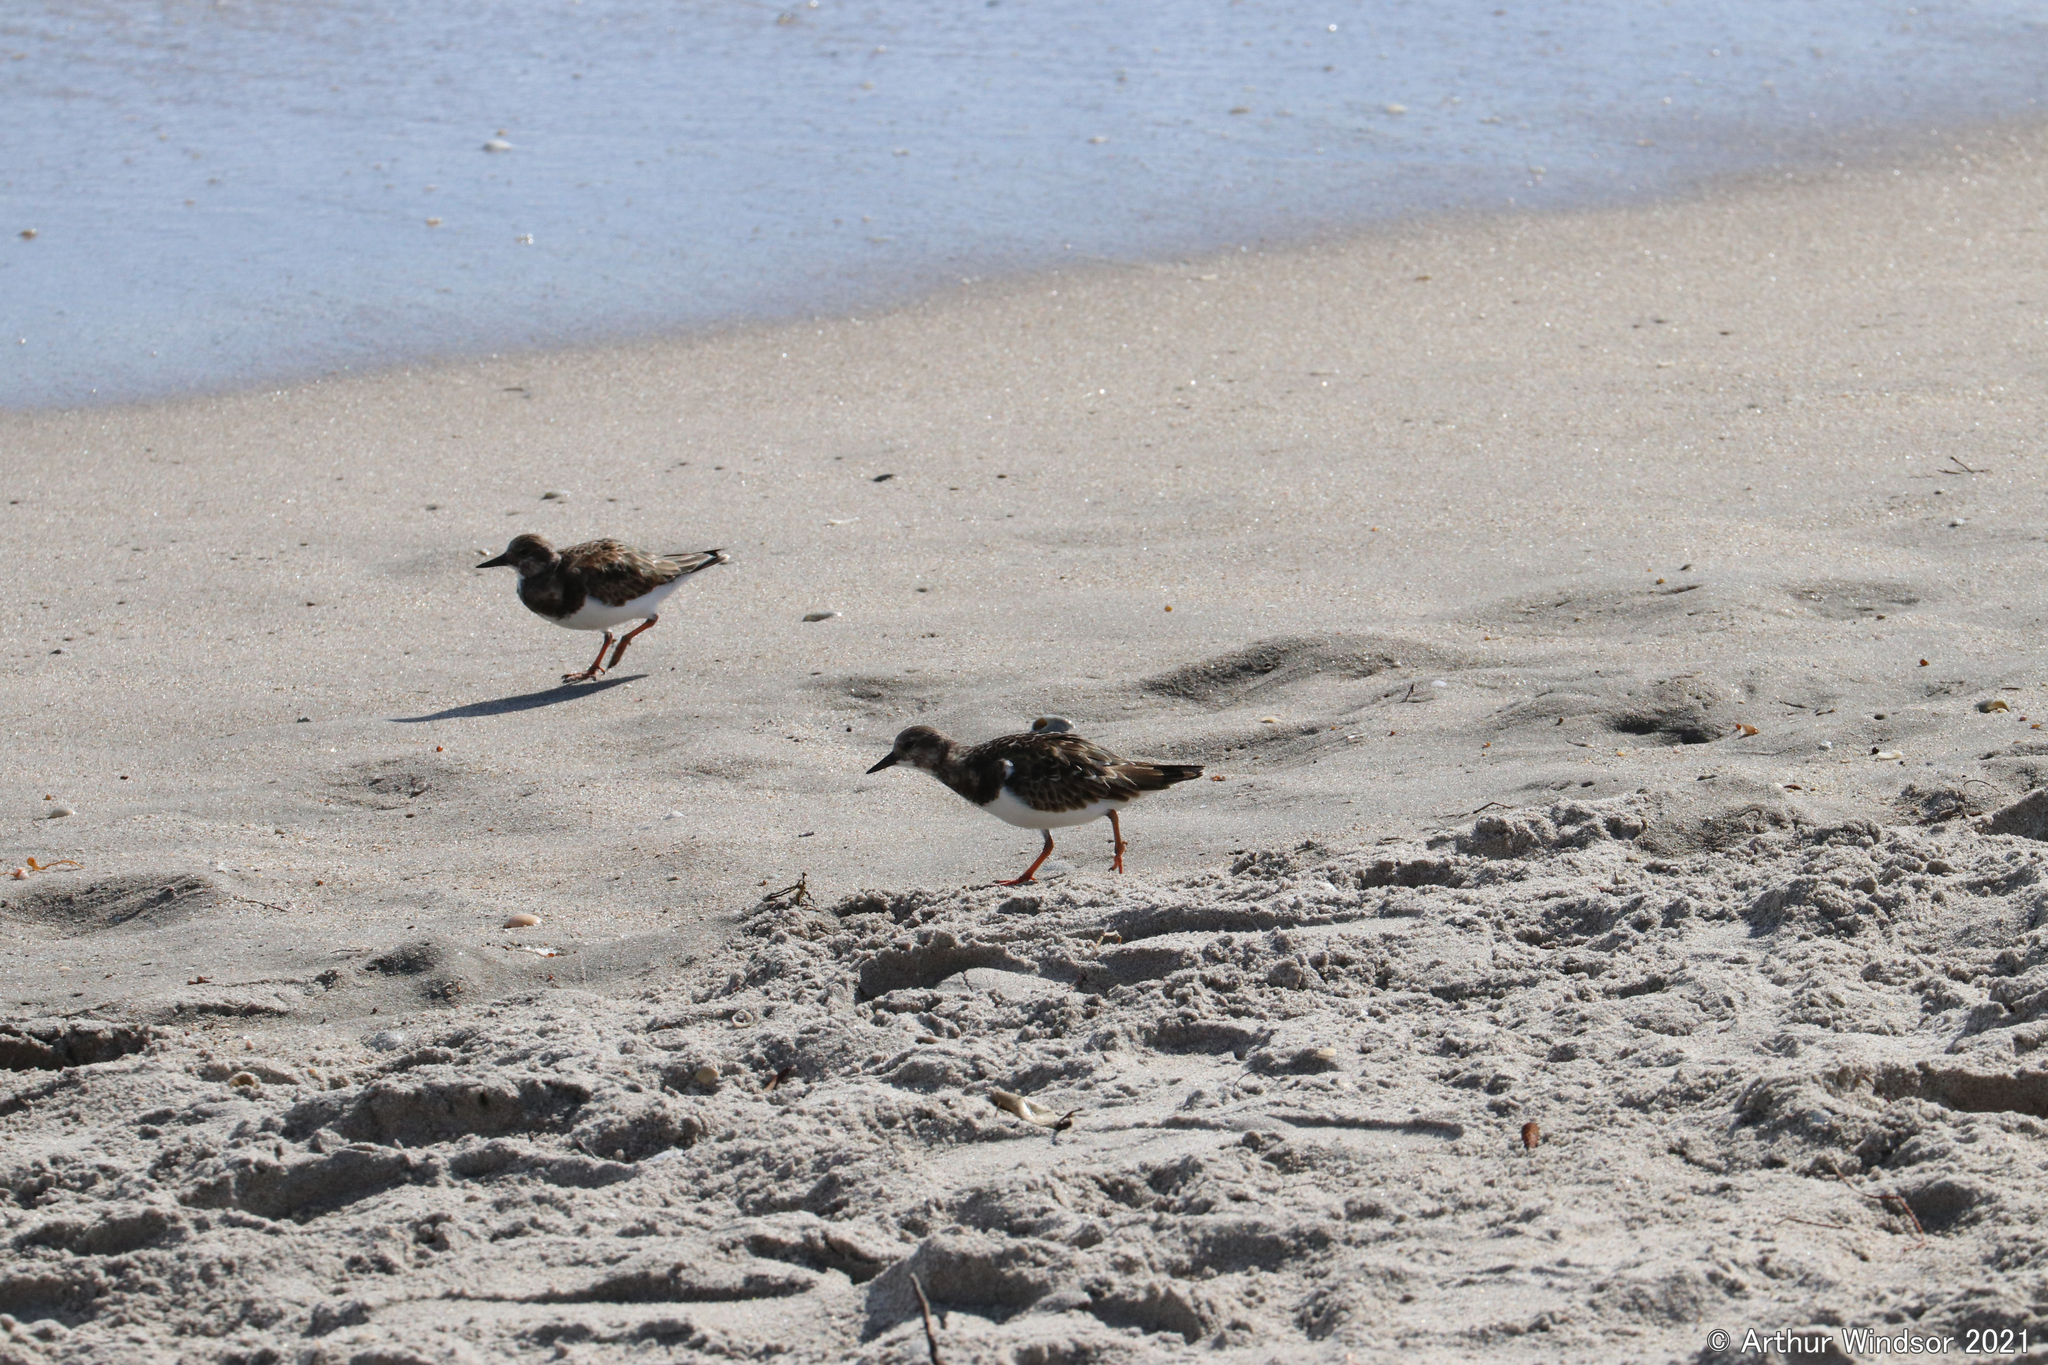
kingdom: Animalia
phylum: Chordata
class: Aves
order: Charadriiformes
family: Scolopacidae
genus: Arenaria
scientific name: Arenaria interpres
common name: Ruddy turnstone
